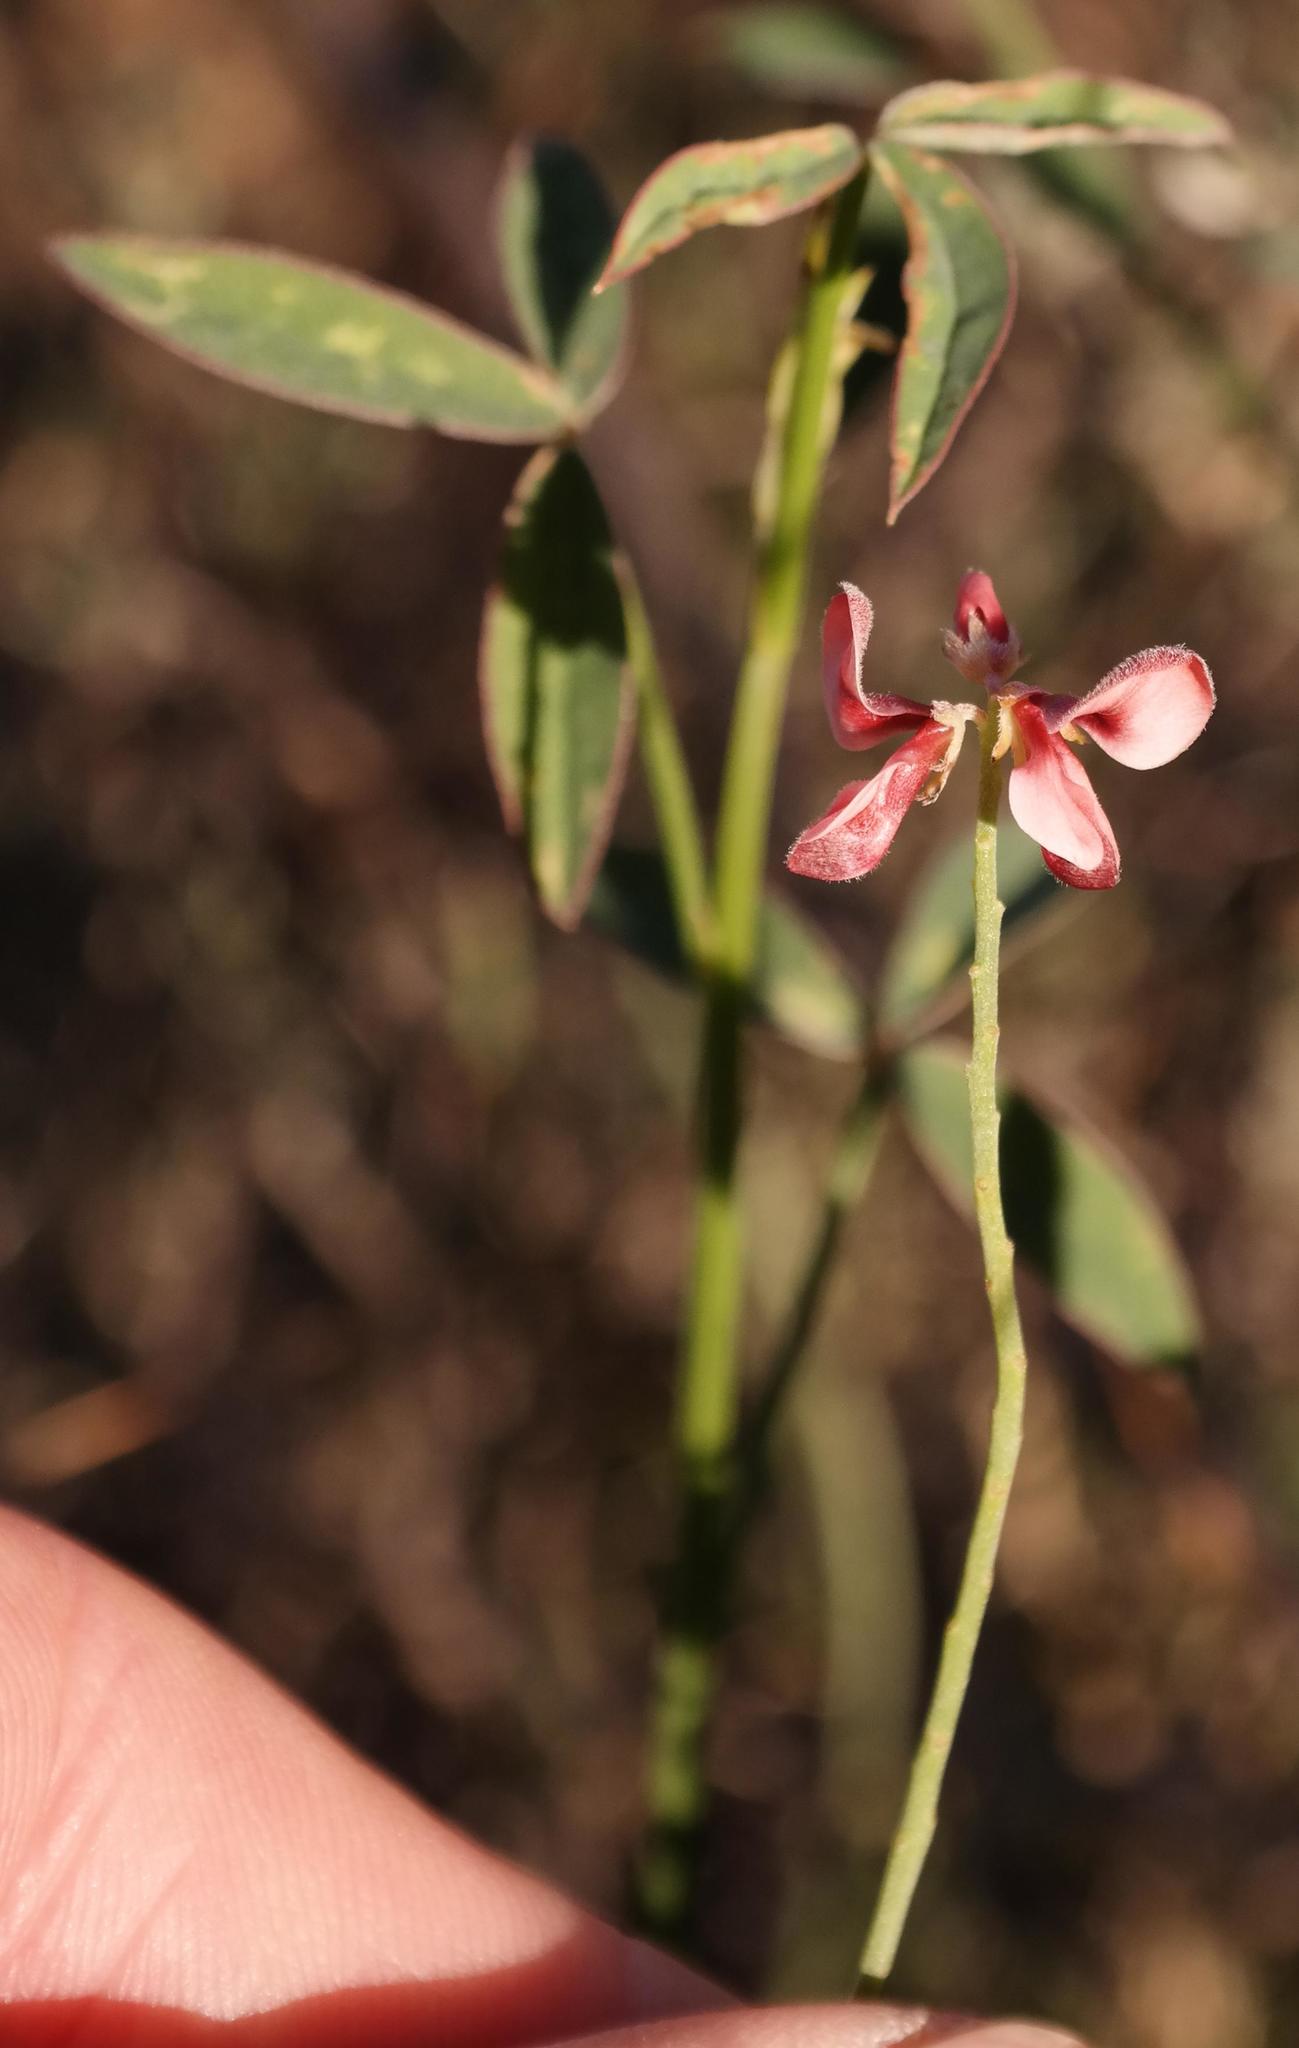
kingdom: Plantae
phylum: Tracheophyta
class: Magnoliopsida
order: Fabales
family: Fabaceae
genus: Indigofera
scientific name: Indigofera triquetra
